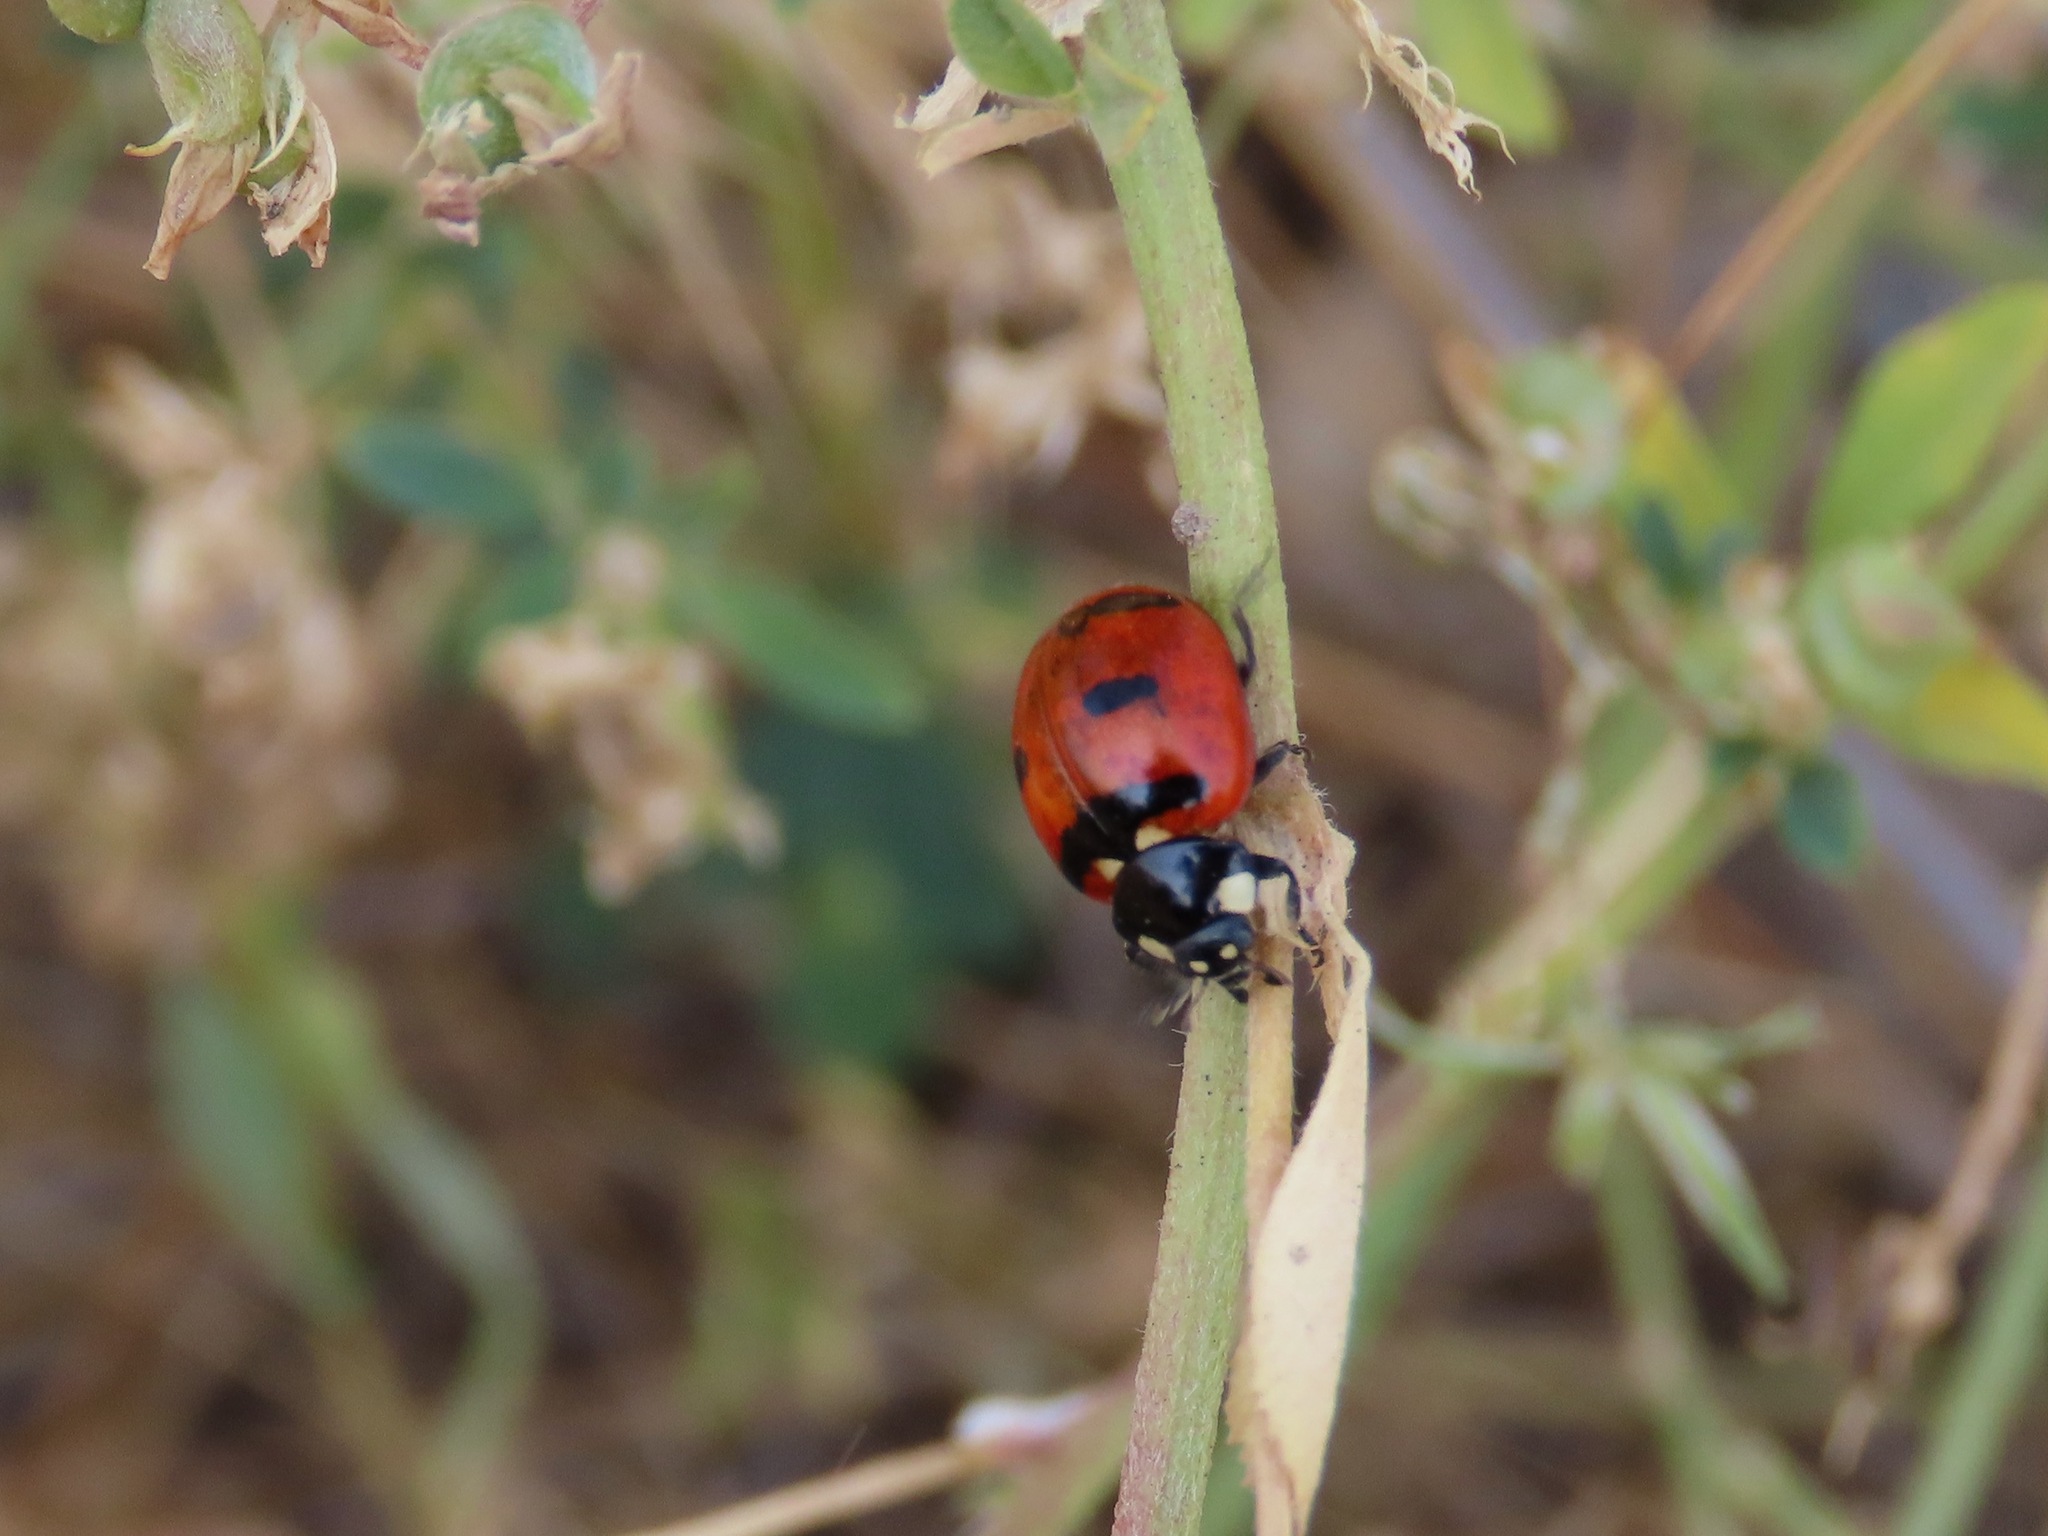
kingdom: Animalia
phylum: Arthropoda
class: Insecta
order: Coleoptera
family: Coccinellidae
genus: Coccinella
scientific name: Coccinella transversoguttata
